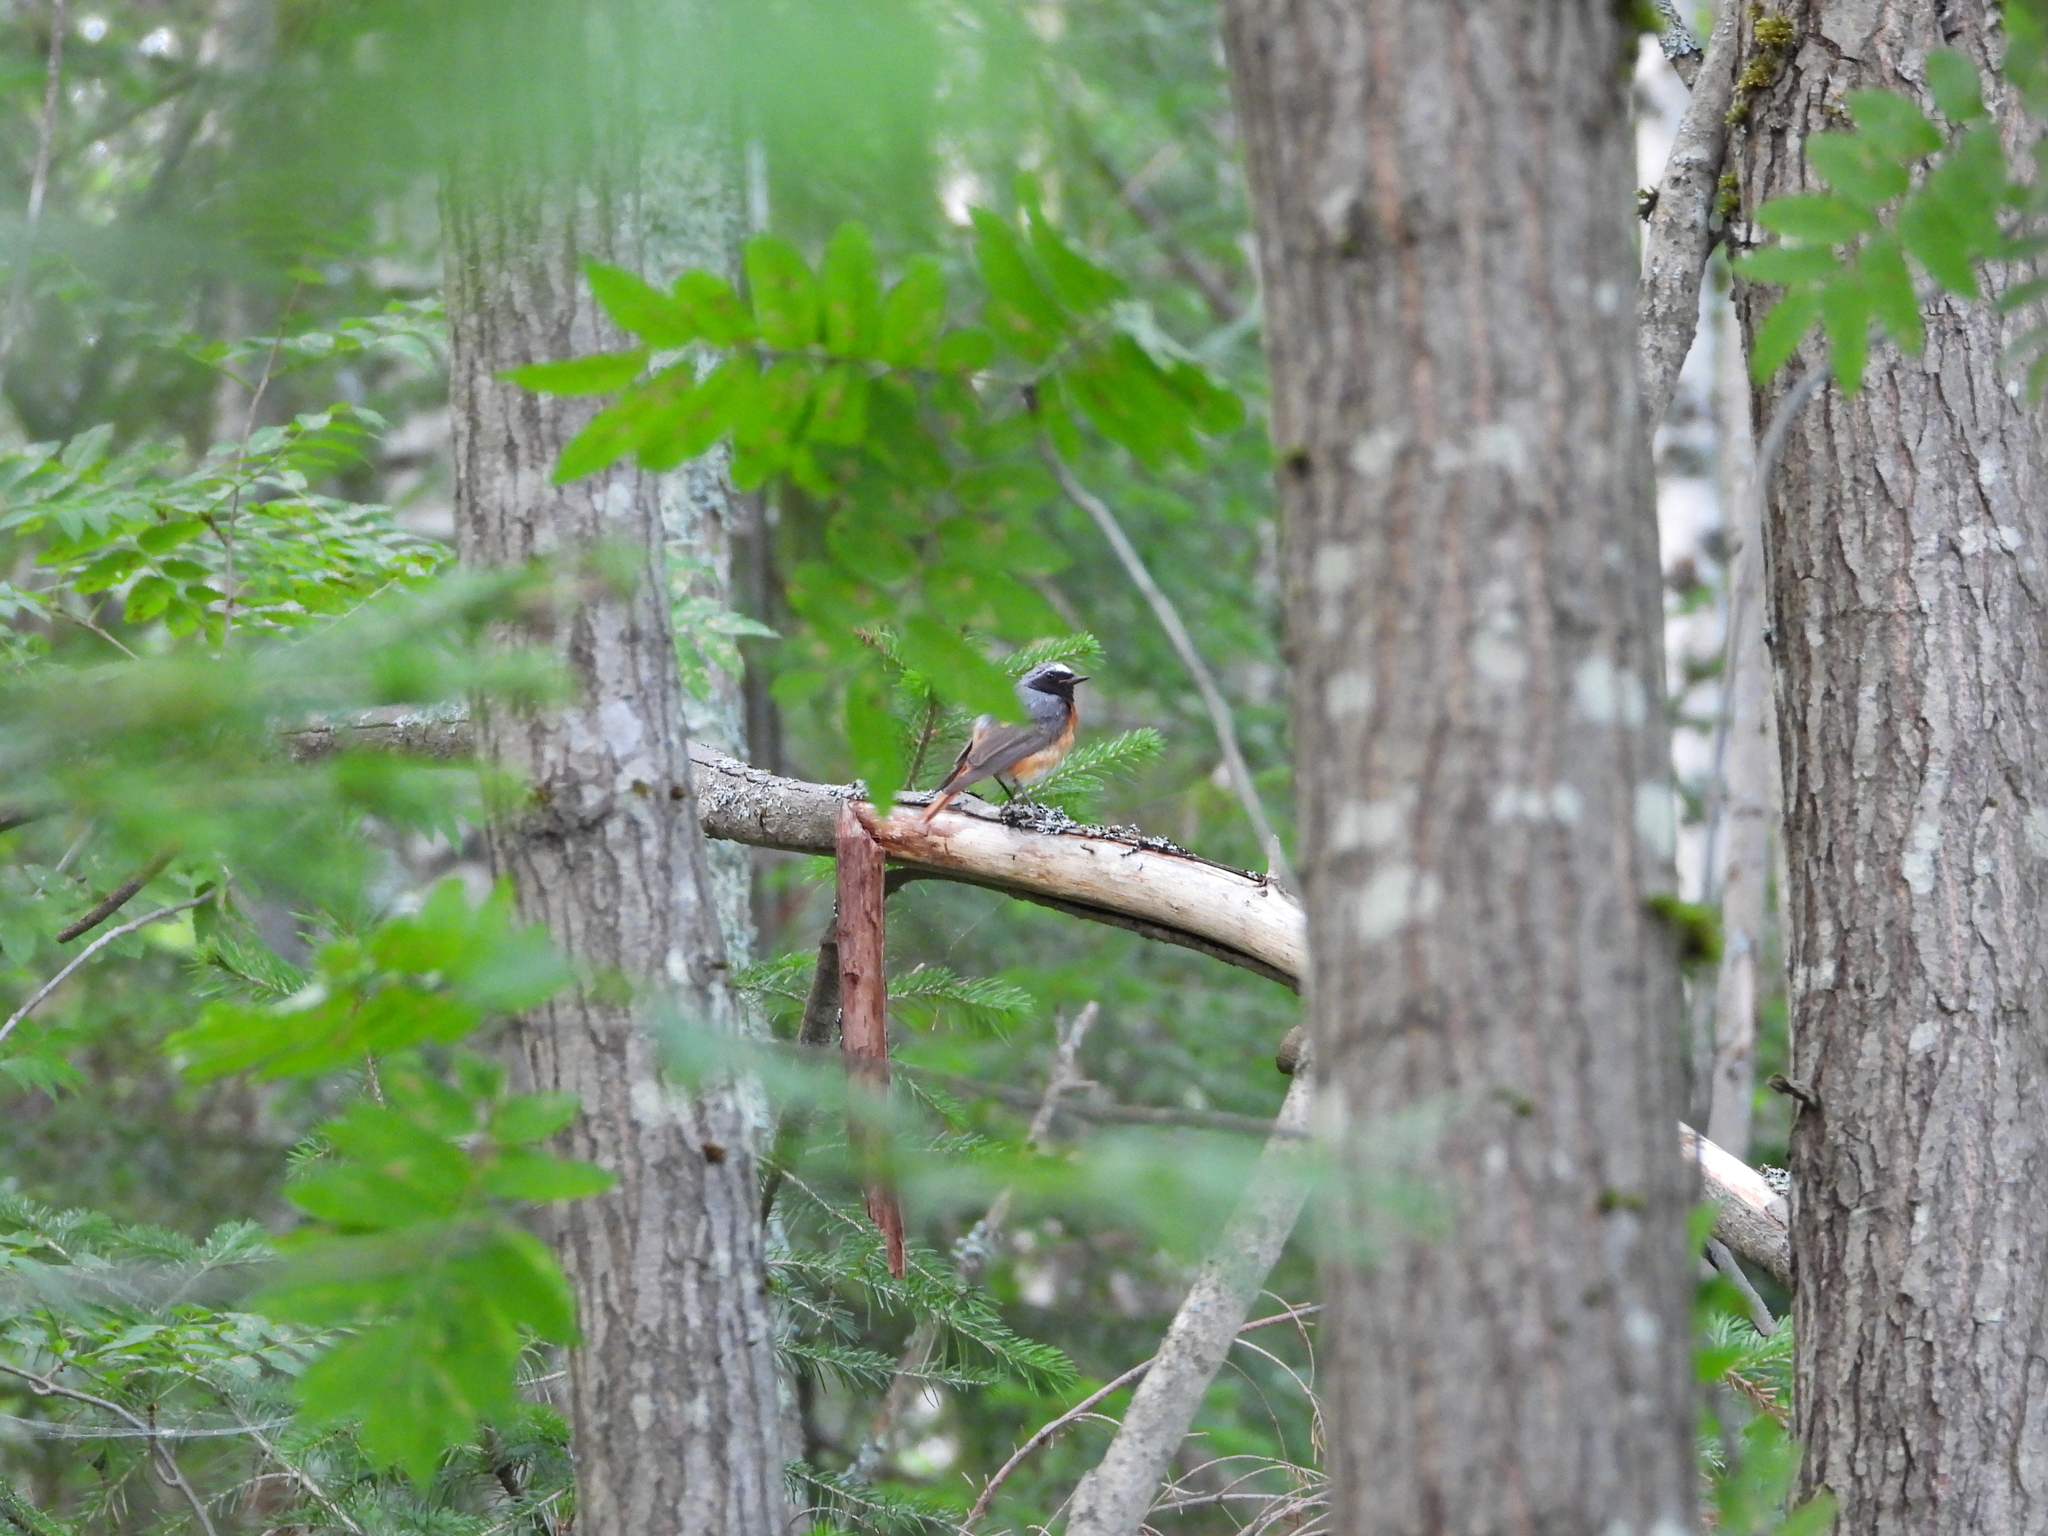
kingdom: Animalia
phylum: Chordata
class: Aves
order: Passeriformes
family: Muscicapidae
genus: Phoenicurus
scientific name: Phoenicurus phoenicurus
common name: Common redstart
